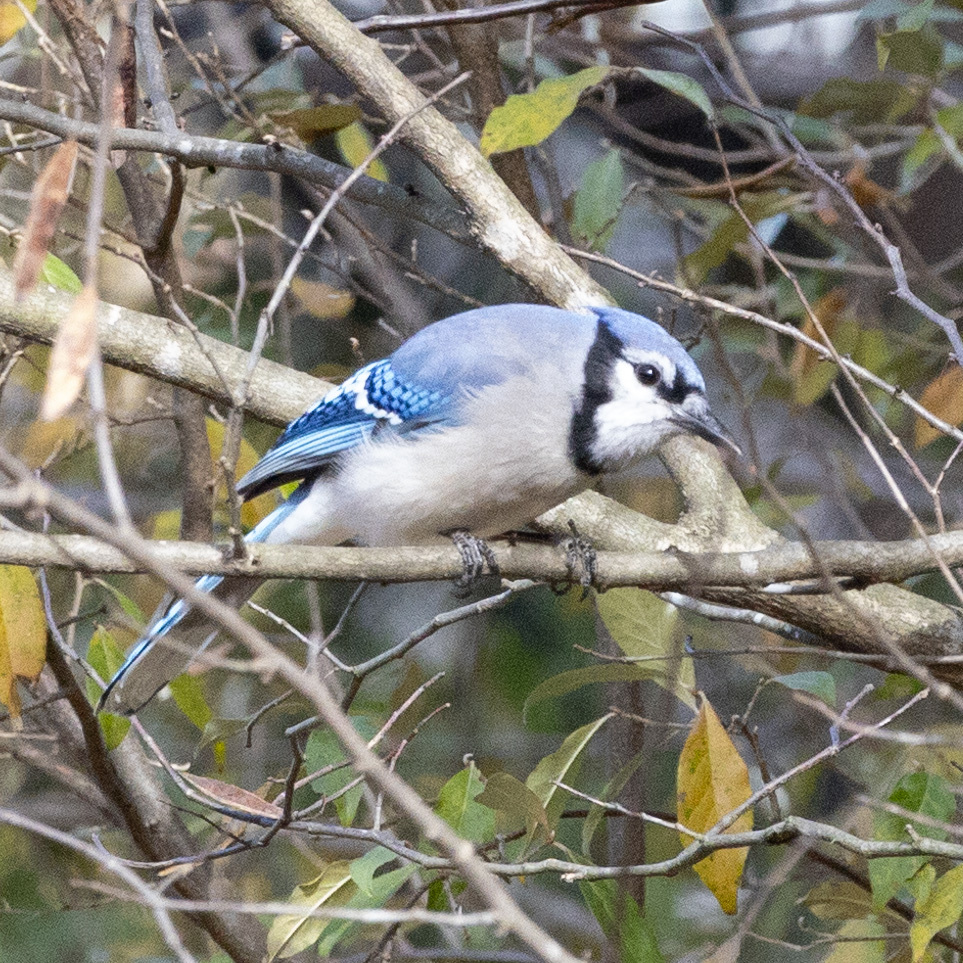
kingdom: Animalia
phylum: Chordata
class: Aves
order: Passeriformes
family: Corvidae
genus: Cyanocitta
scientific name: Cyanocitta cristata
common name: Blue jay
